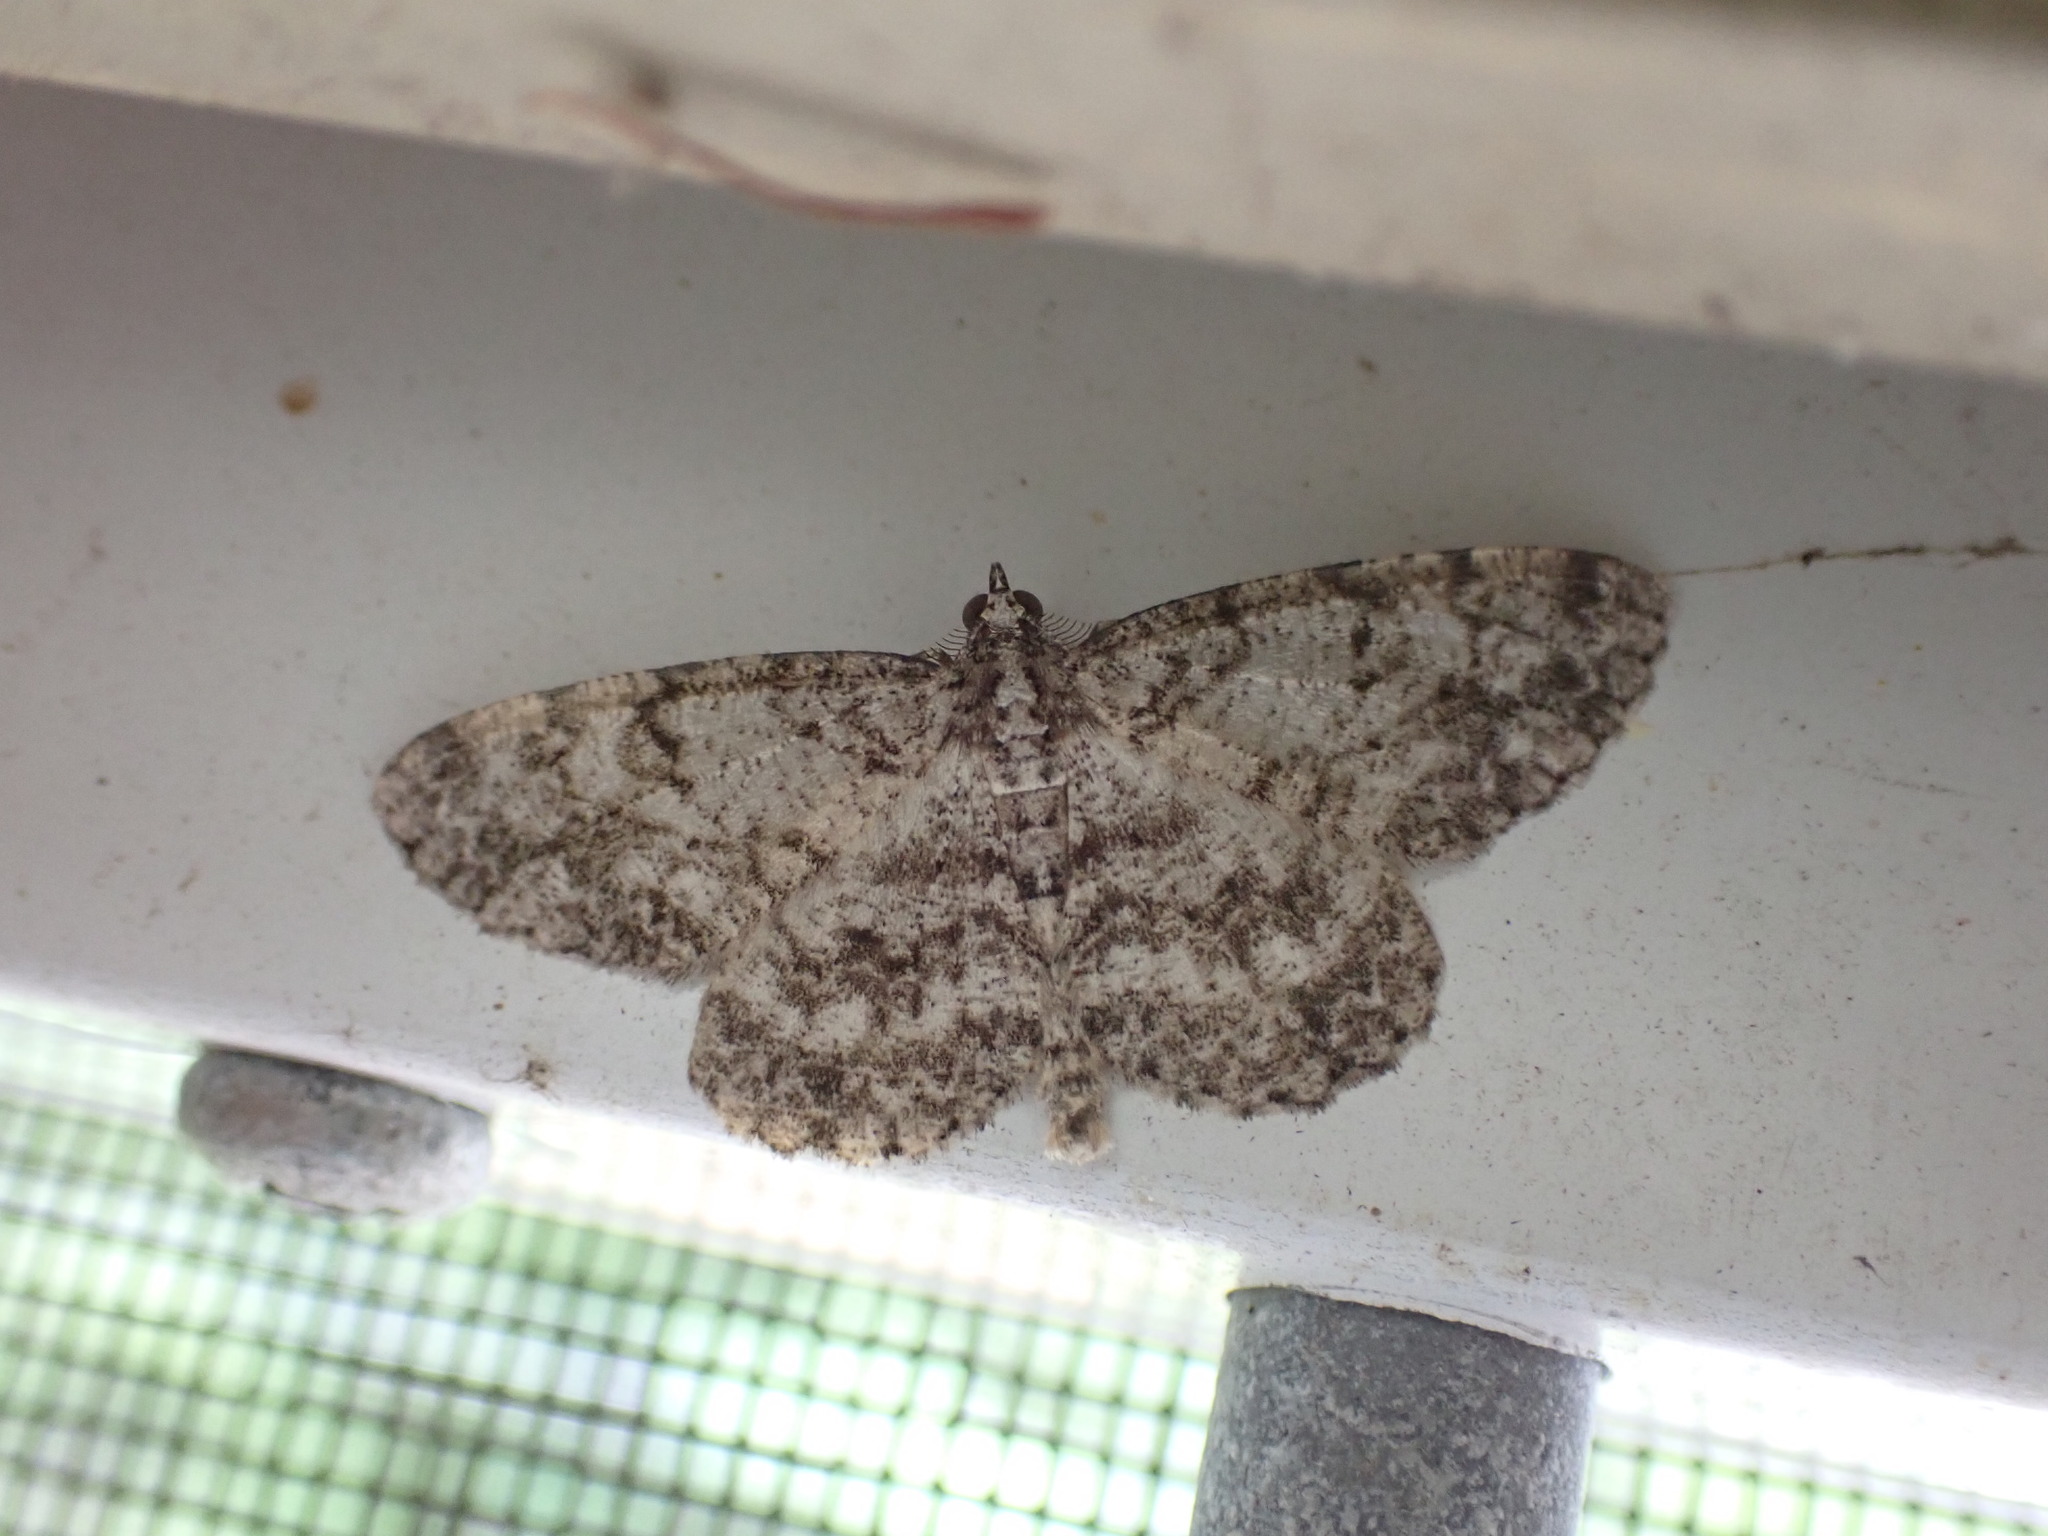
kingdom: Animalia
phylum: Arthropoda
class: Insecta
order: Lepidoptera
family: Geometridae
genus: Protoboarmia
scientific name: Protoboarmia porcelaria
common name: Porcelain gray
